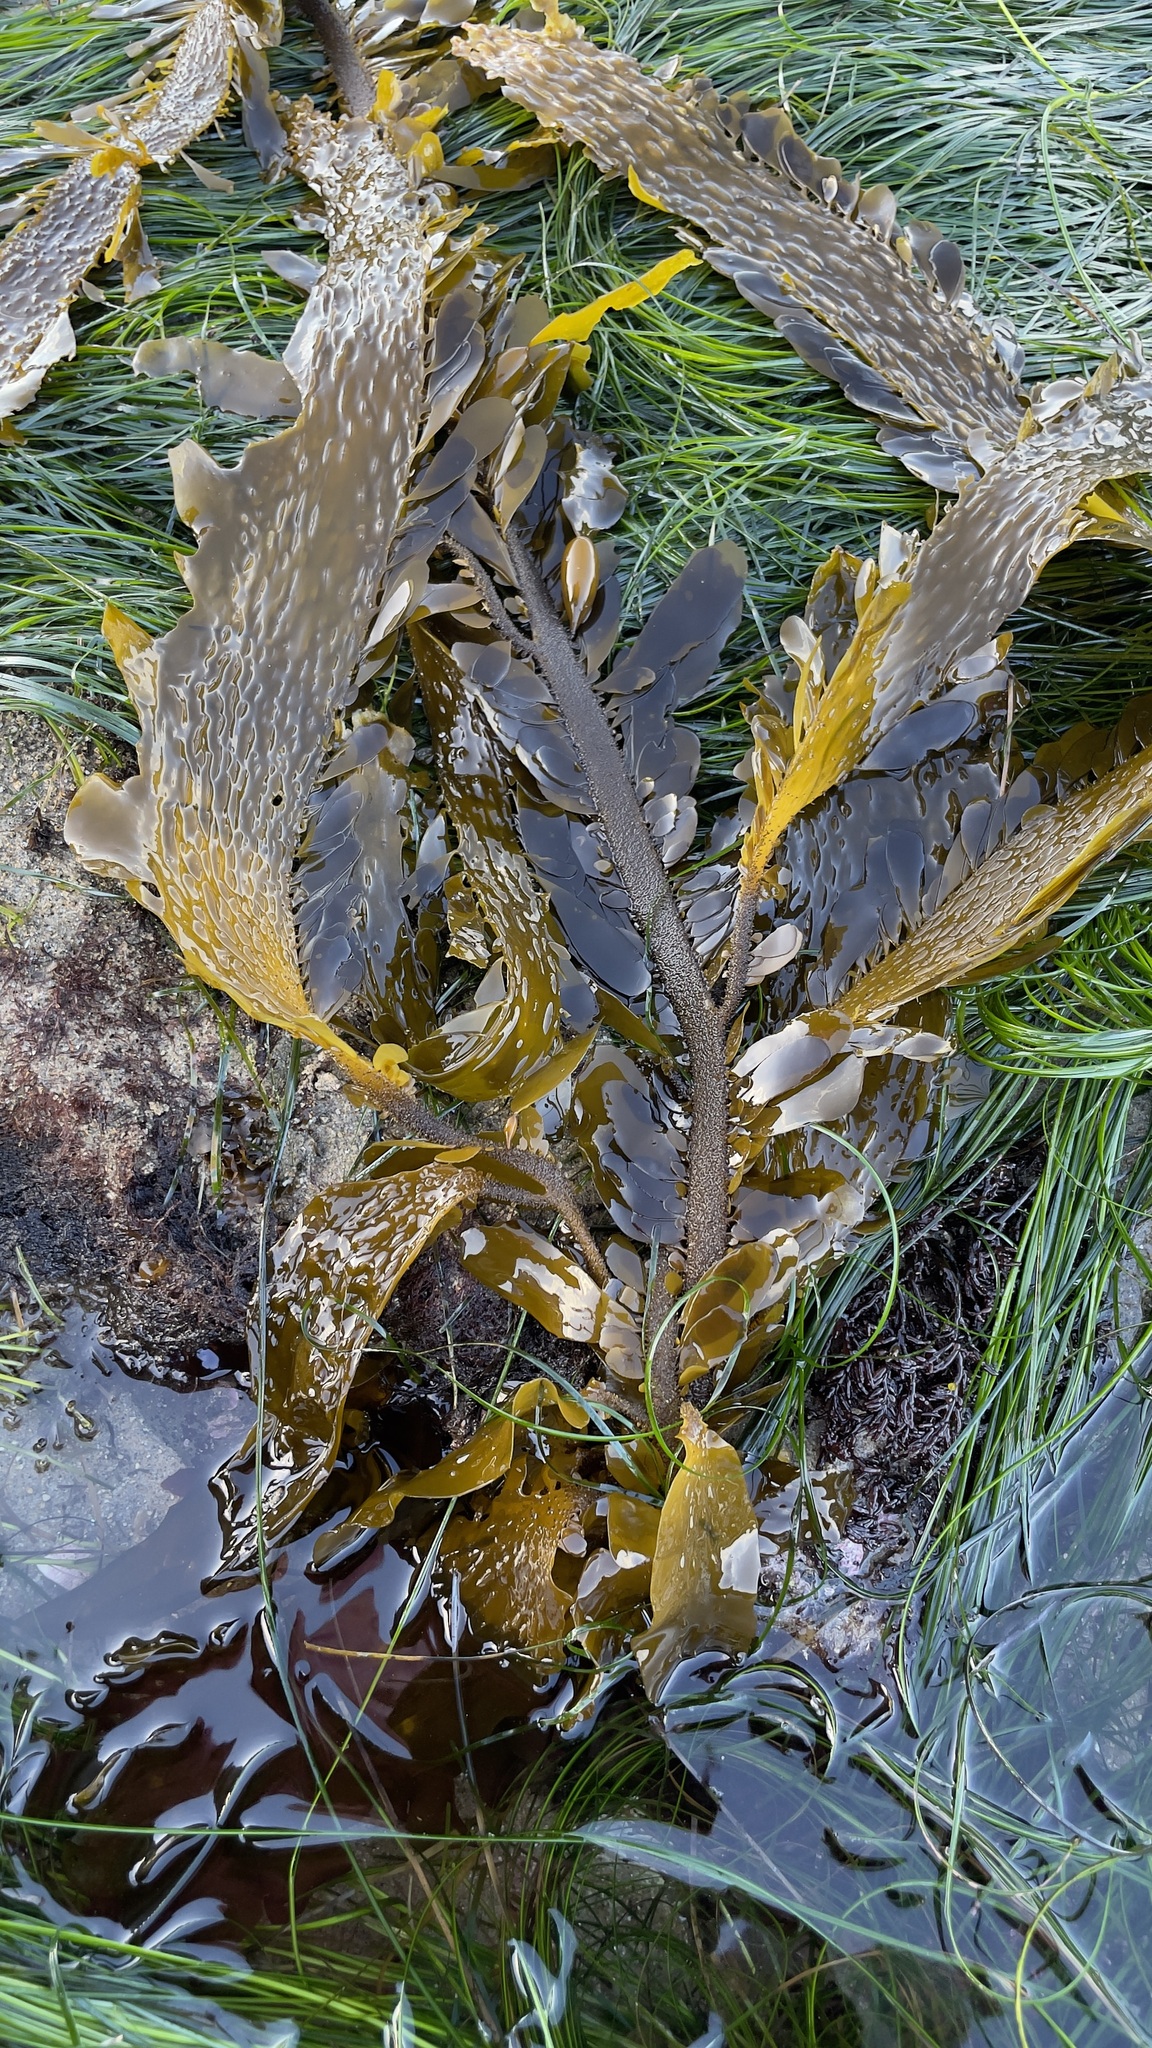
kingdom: Chromista
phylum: Ochrophyta
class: Phaeophyceae
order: Laminariales
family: Lessoniaceae
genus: Egregia
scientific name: Egregia menziesii
